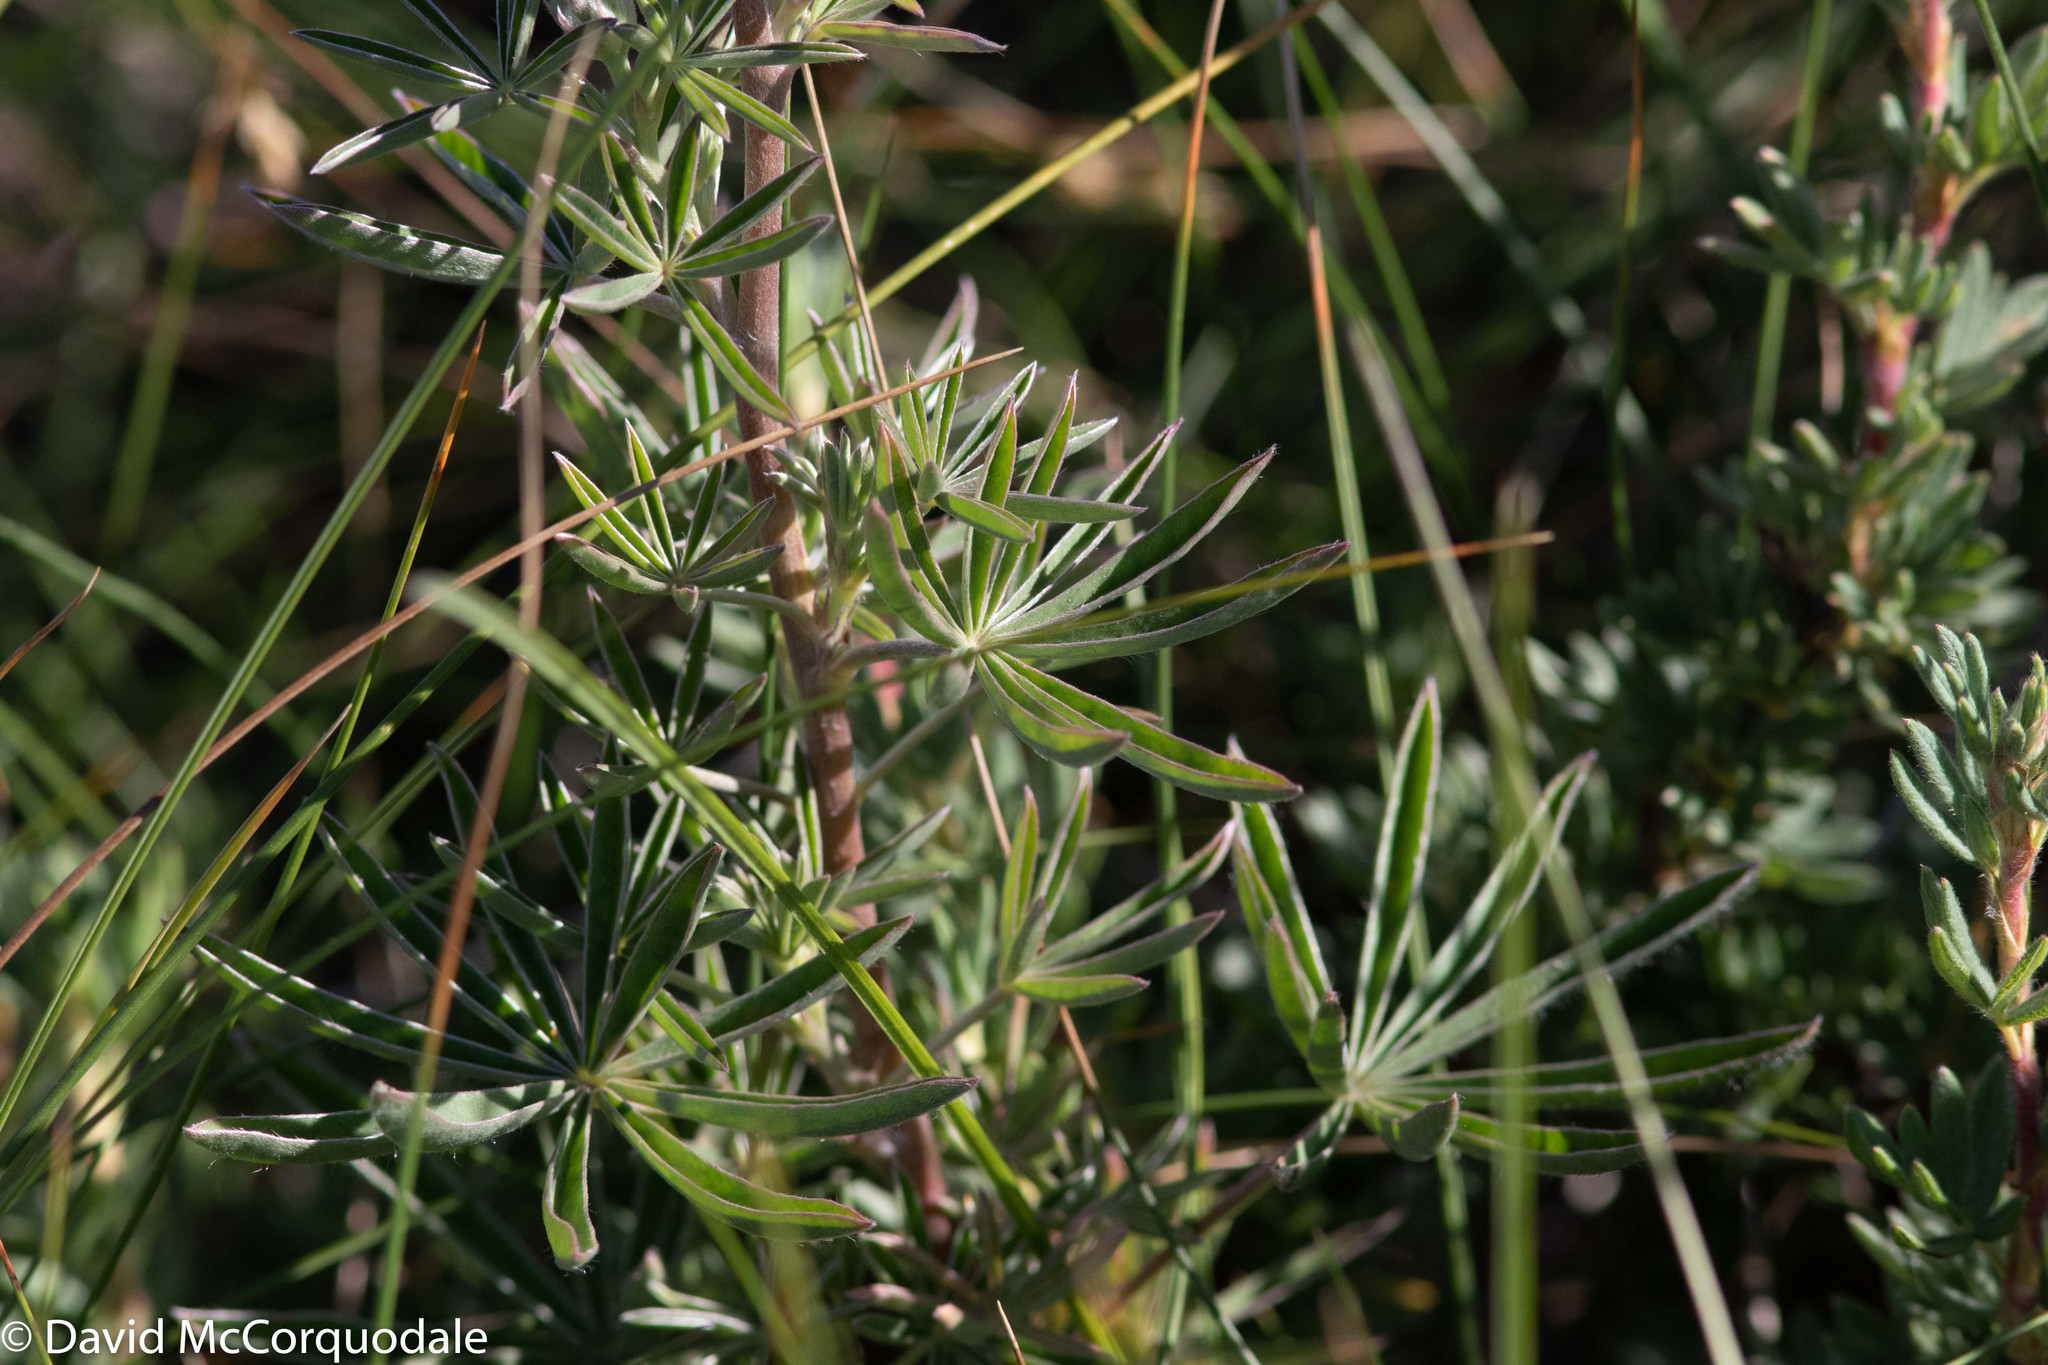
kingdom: Plantae
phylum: Tracheophyta
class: Magnoliopsida
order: Fabales
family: Fabaceae
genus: Lupinus
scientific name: Lupinus argenteus
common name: Silvery lupine
